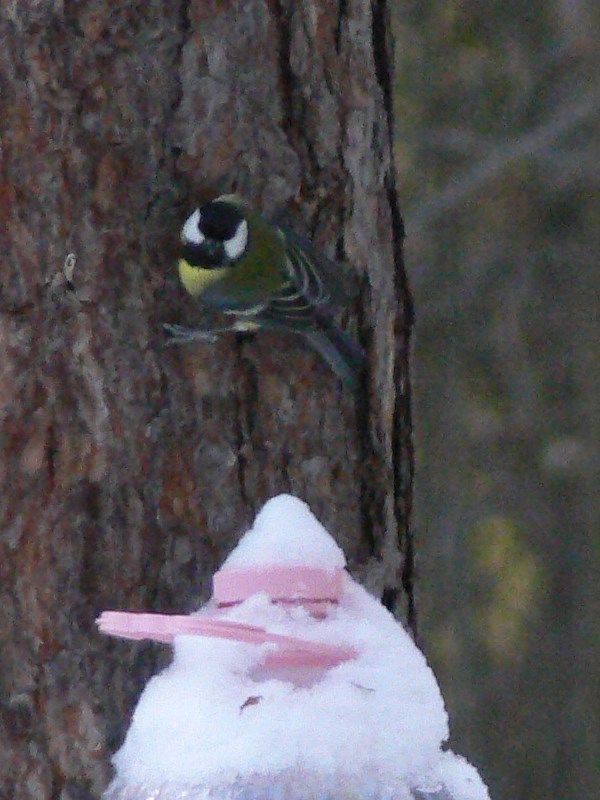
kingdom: Animalia
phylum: Chordata
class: Aves
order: Passeriformes
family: Paridae
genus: Parus
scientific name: Parus major
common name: Great tit
